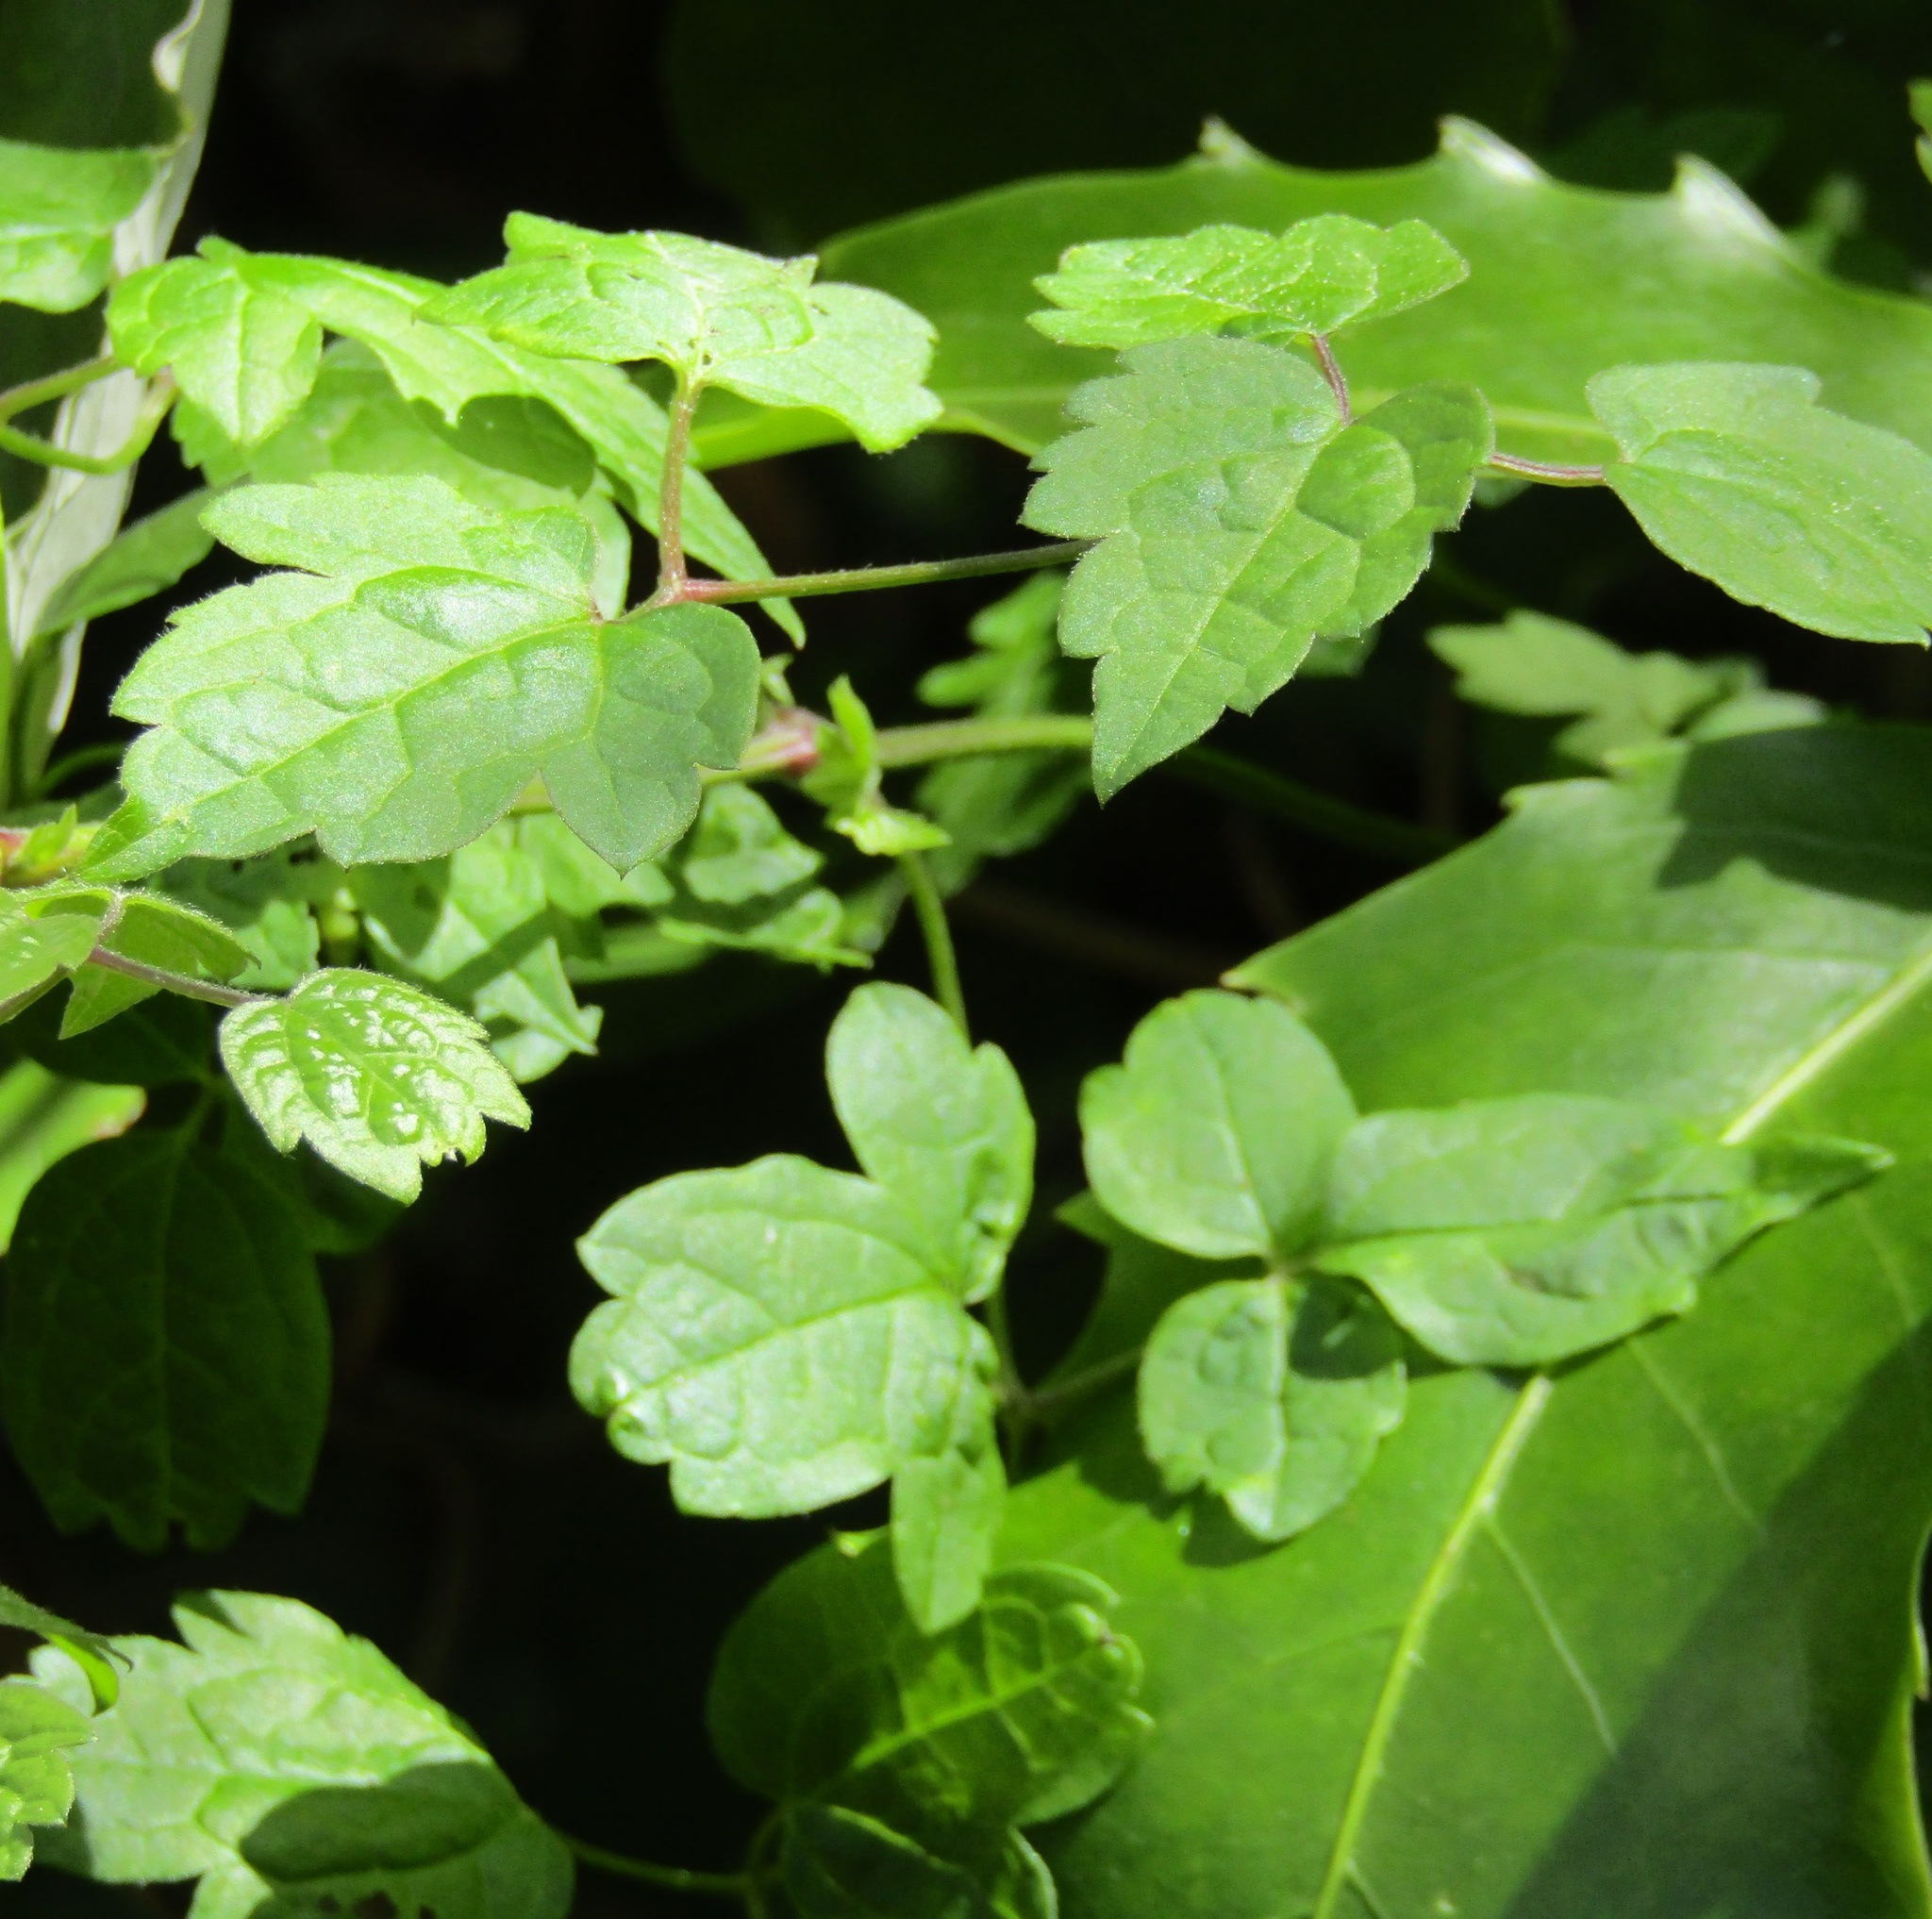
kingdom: Plantae
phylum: Tracheophyta
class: Magnoliopsida
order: Ranunculales
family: Ranunculaceae
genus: Clematis
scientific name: Clematis vitalba
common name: Evergreen clematis
